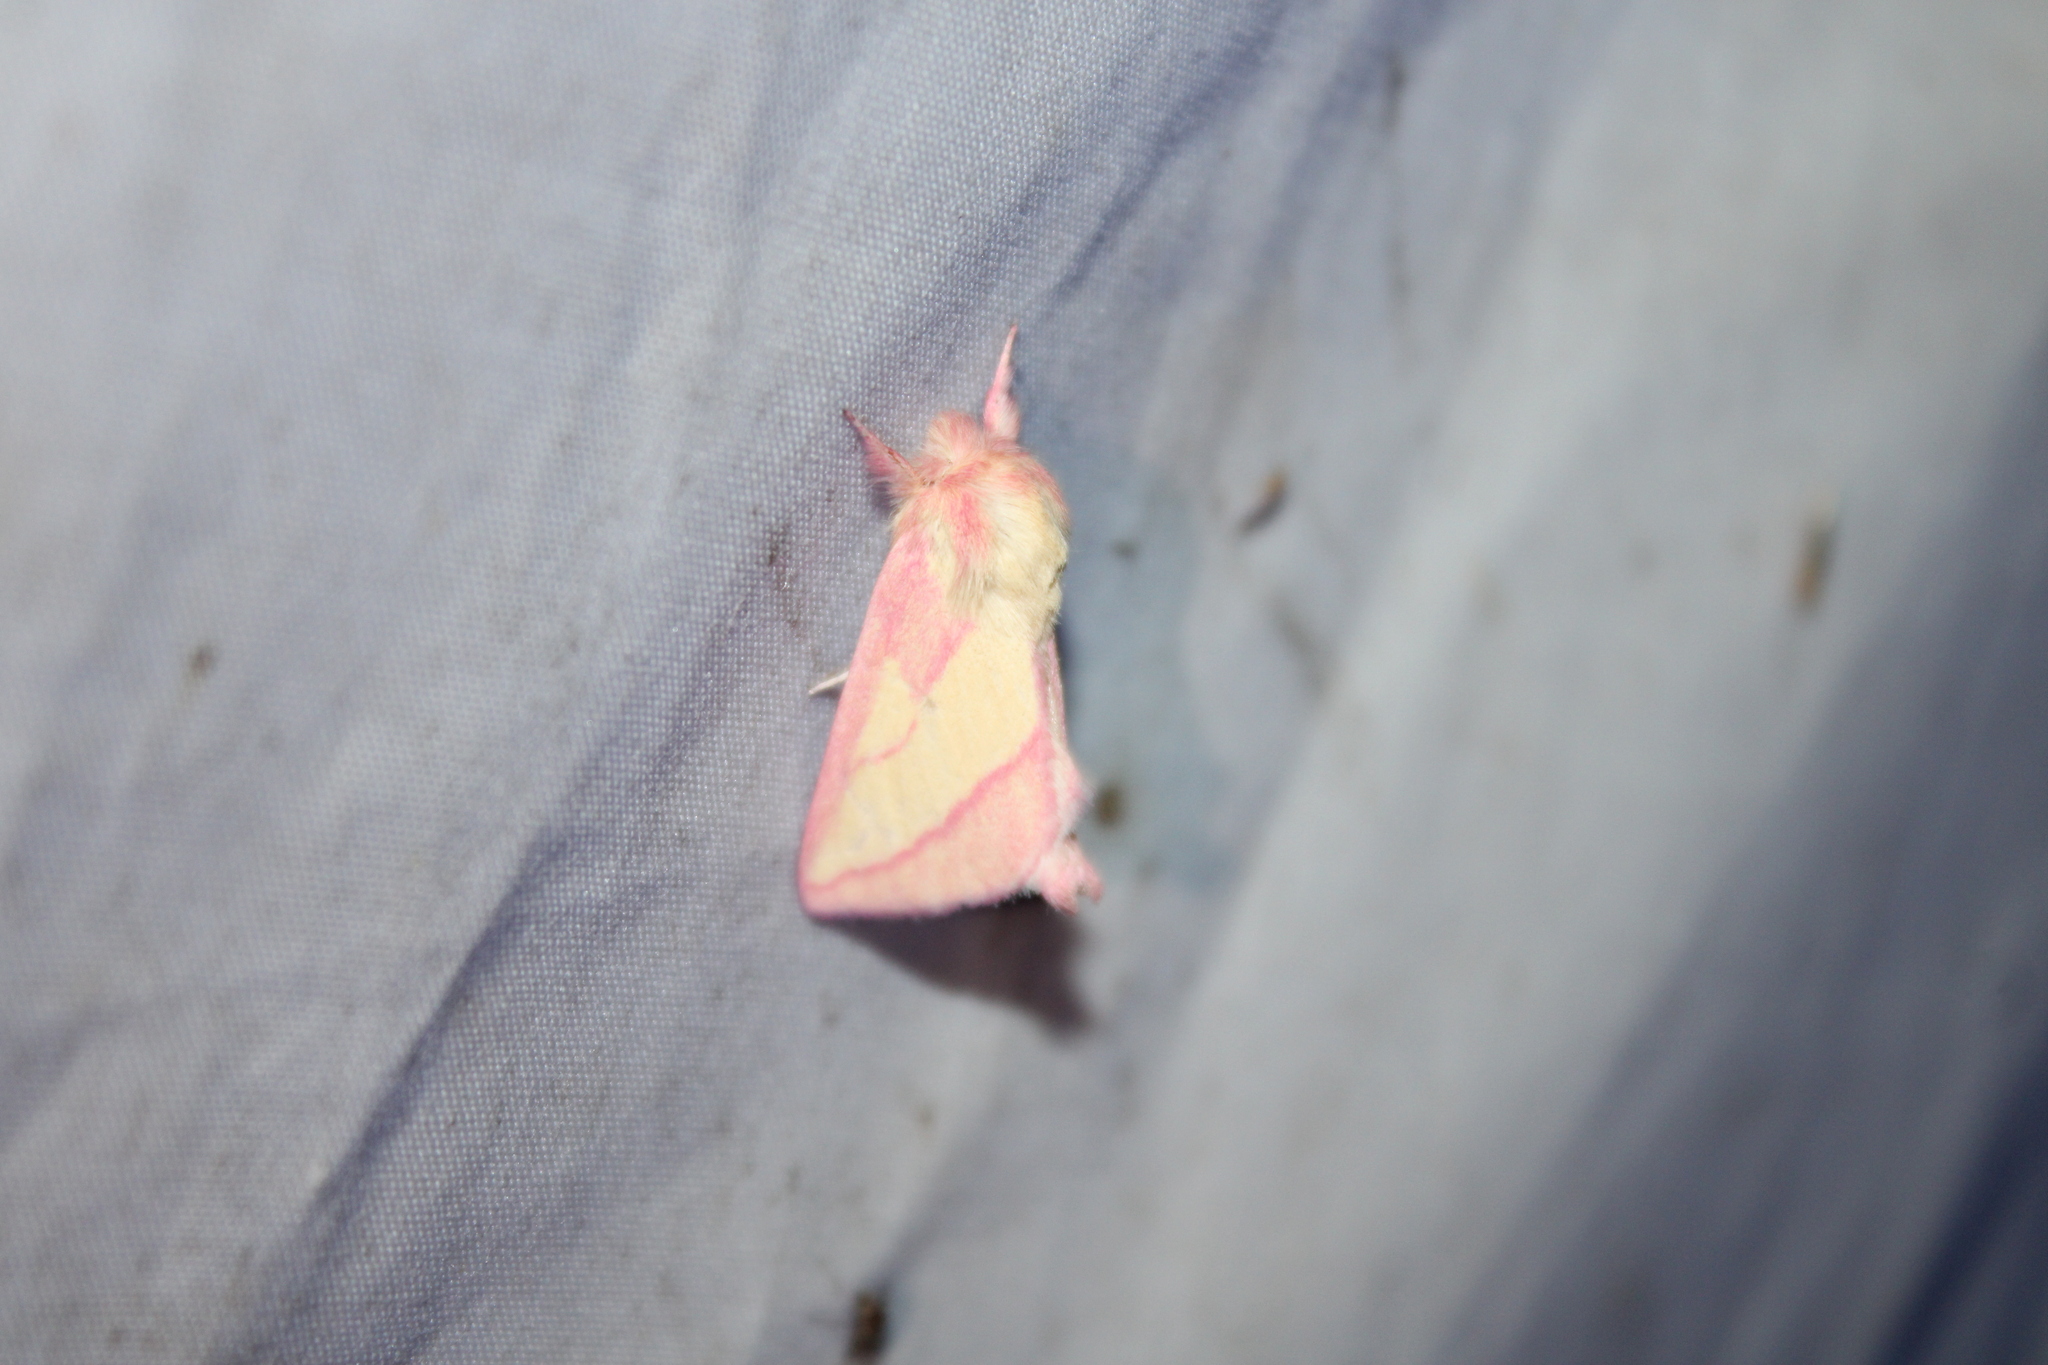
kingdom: Animalia
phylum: Arthropoda
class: Insecta
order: Lepidoptera
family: Notodontidae
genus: Hyparpax
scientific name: Hyparpax aurora
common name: Pink prominent
